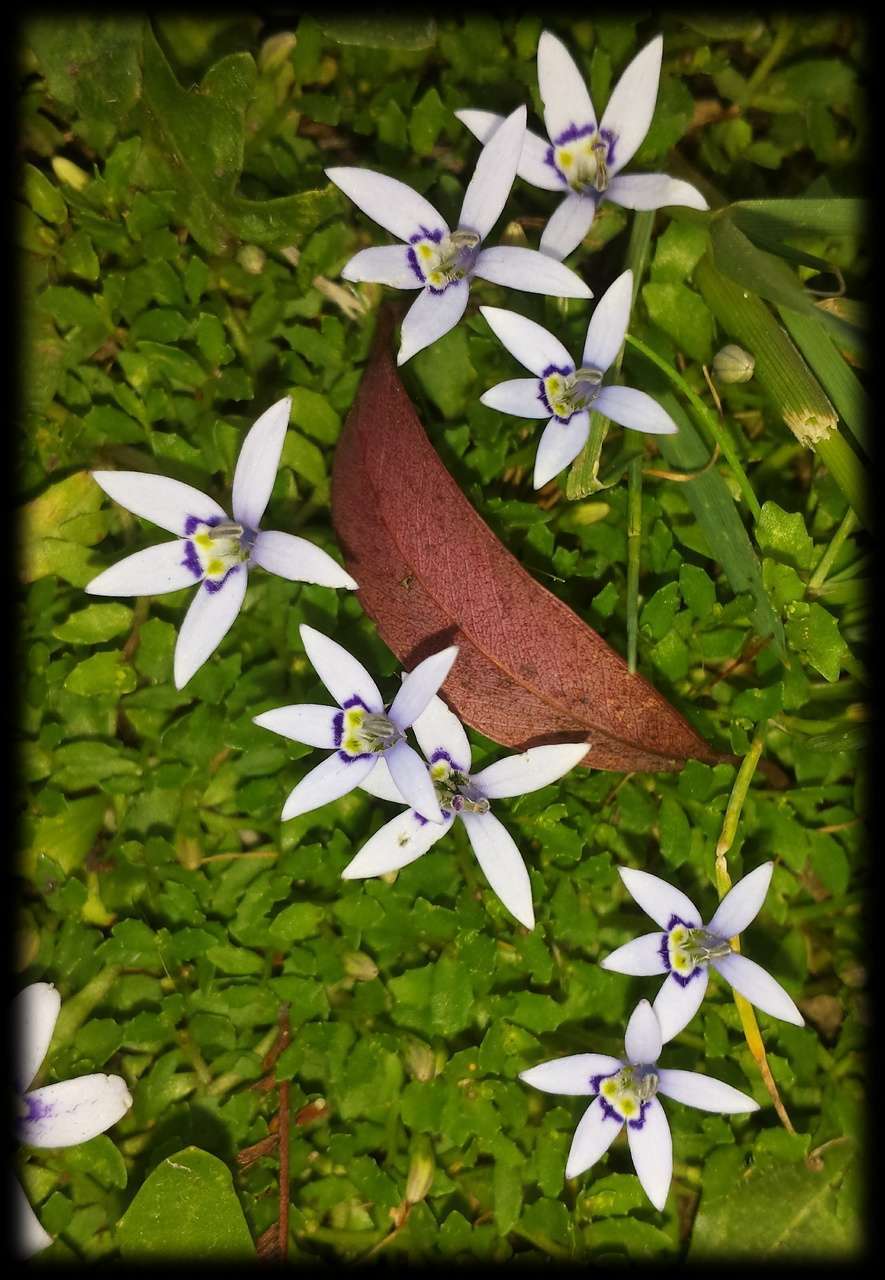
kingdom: Plantae
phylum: Tracheophyta
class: Magnoliopsida
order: Asterales
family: Campanulaceae
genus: Isotoma
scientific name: Isotoma fluviatilis
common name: Isotoma
